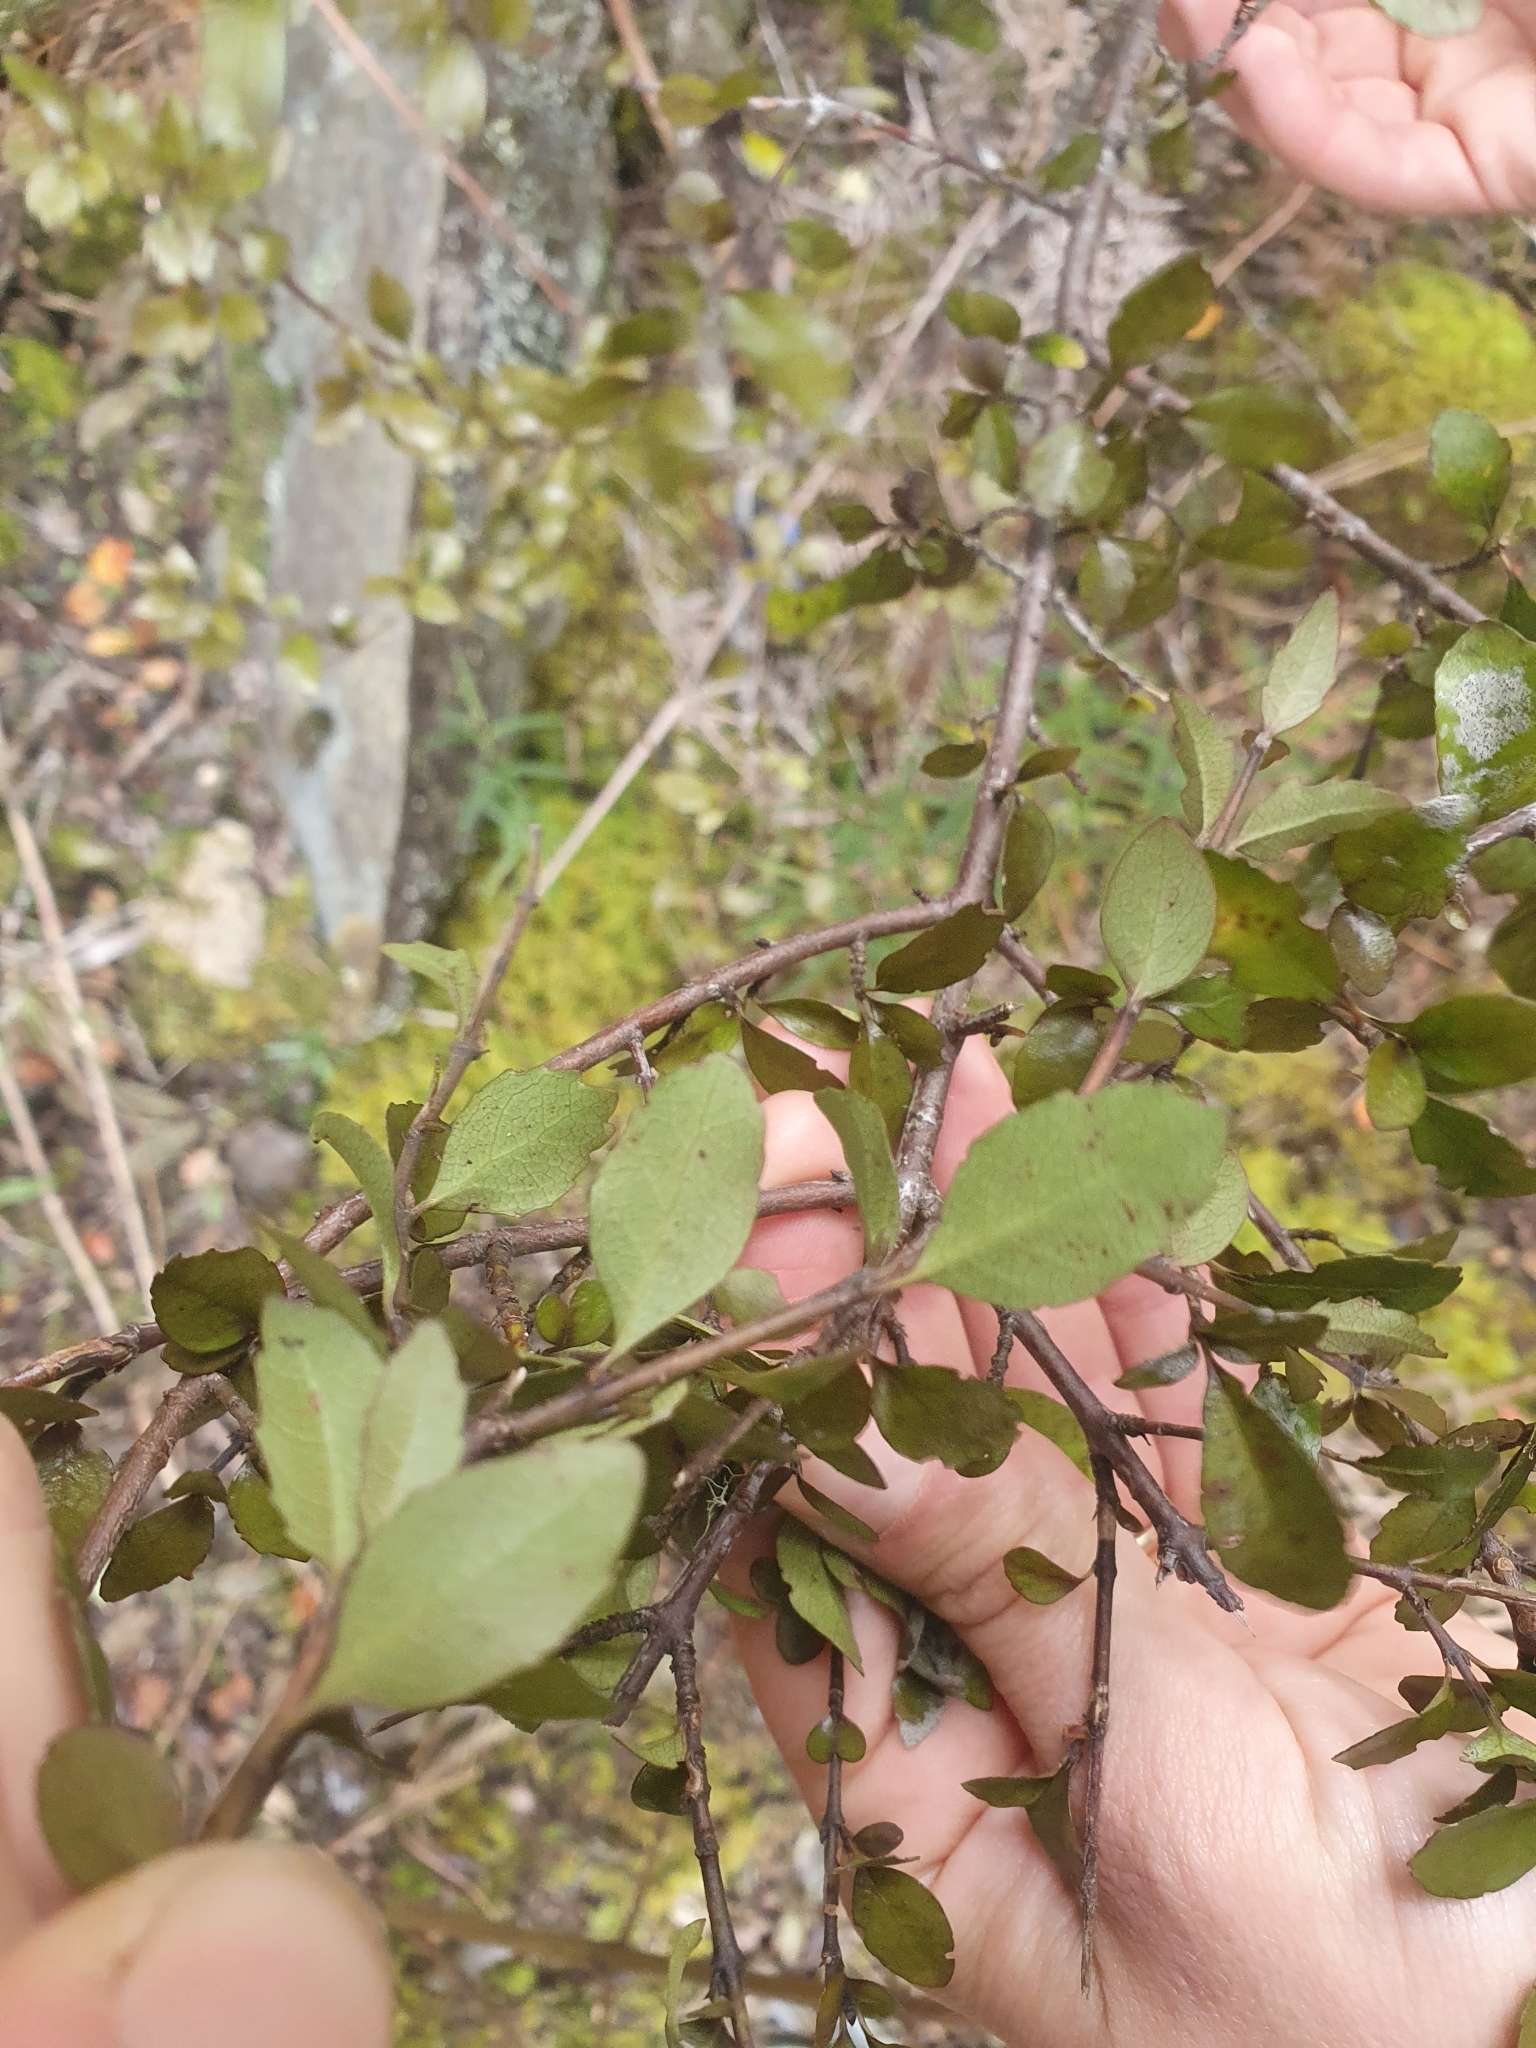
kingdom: Plantae
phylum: Tracheophyta
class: Magnoliopsida
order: Oxalidales
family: Elaeocarpaceae
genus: Aristotelia
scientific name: Aristotelia
